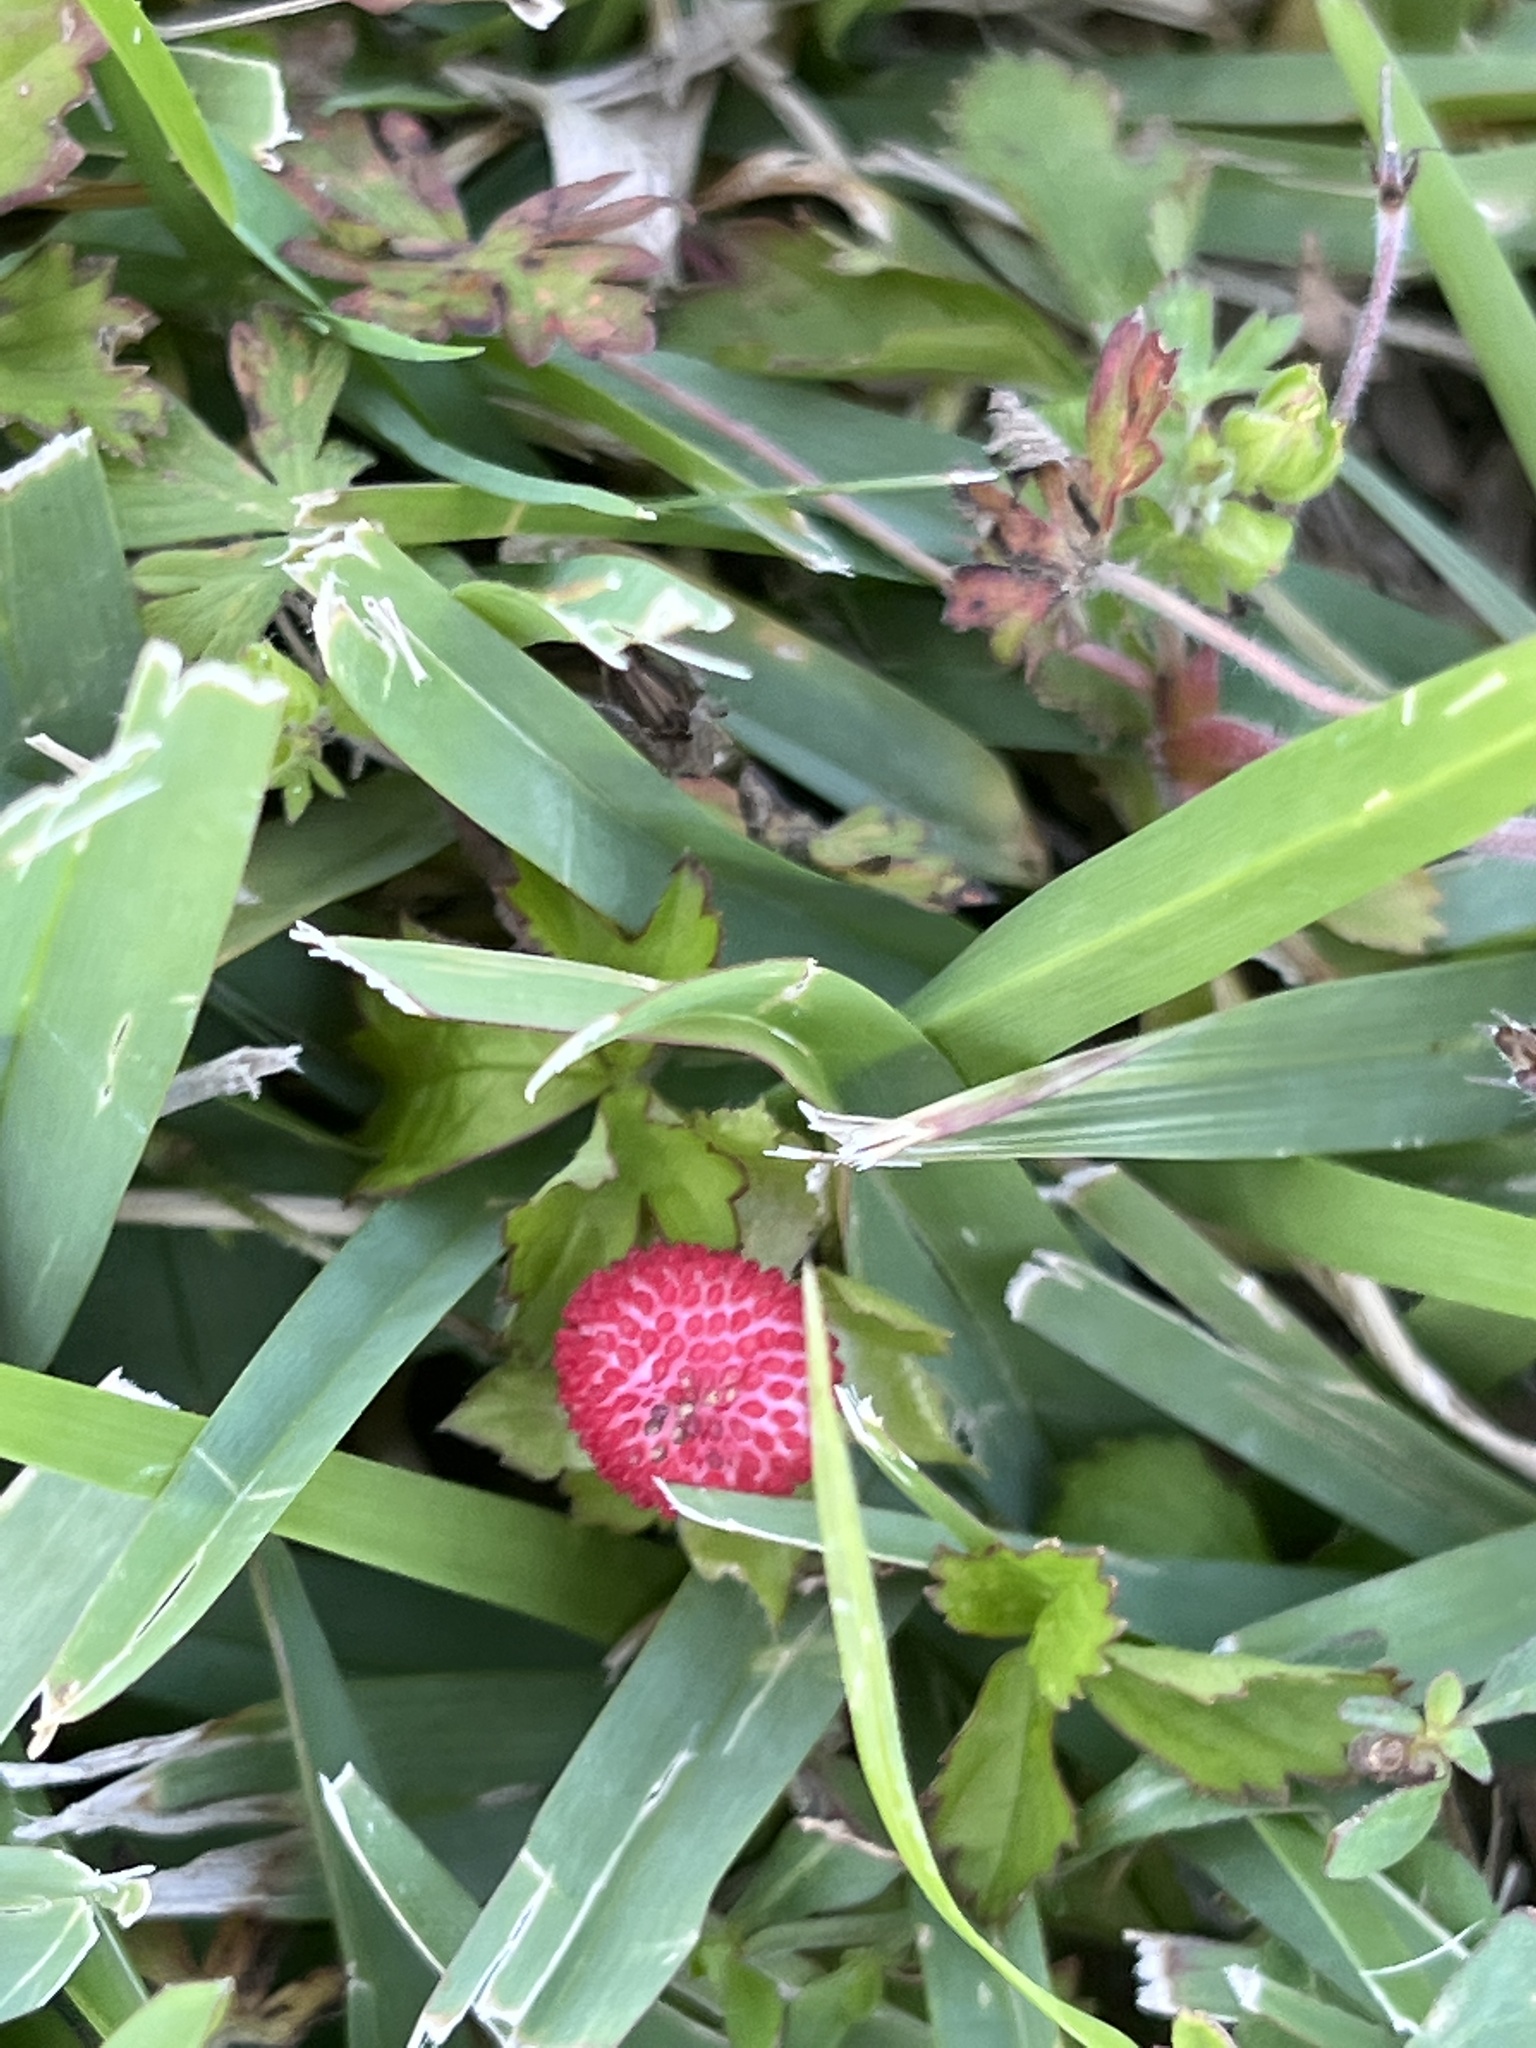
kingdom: Plantae
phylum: Tracheophyta
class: Magnoliopsida
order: Rosales
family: Rosaceae
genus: Potentilla
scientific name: Potentilla indica
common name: Yellow-flowered strawberry
